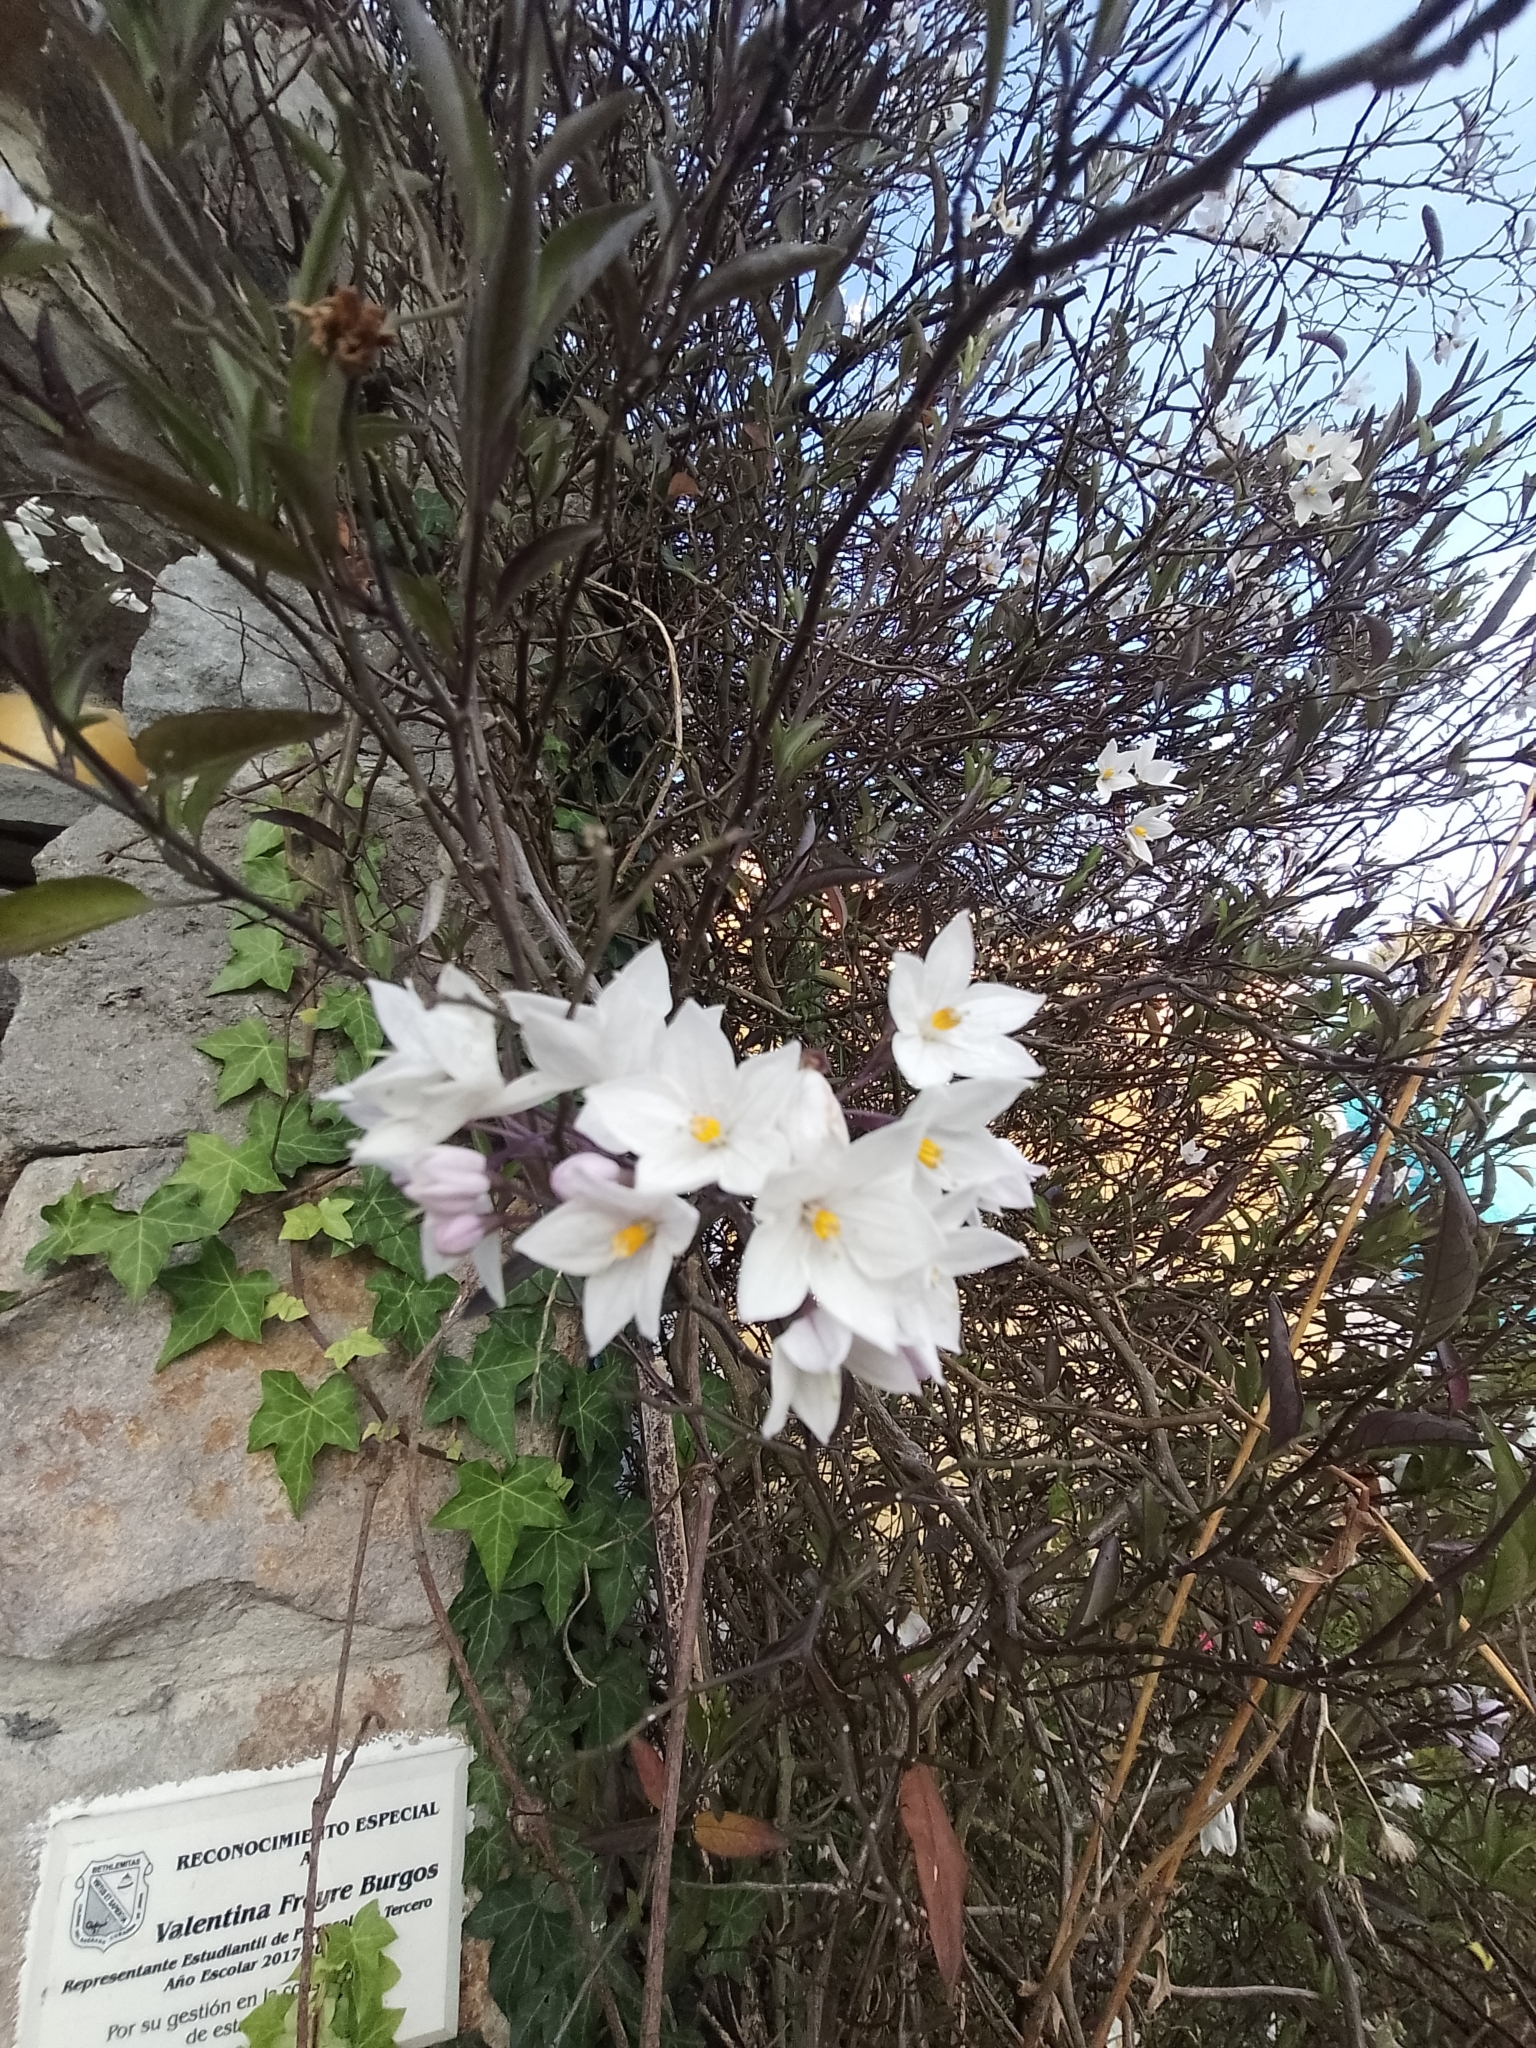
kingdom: Plantae
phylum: Tracheophyta
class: Magnoliopsida
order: Solanales
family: Solanaceae
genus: Solanum
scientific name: Solanum laxum
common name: Nightshade
